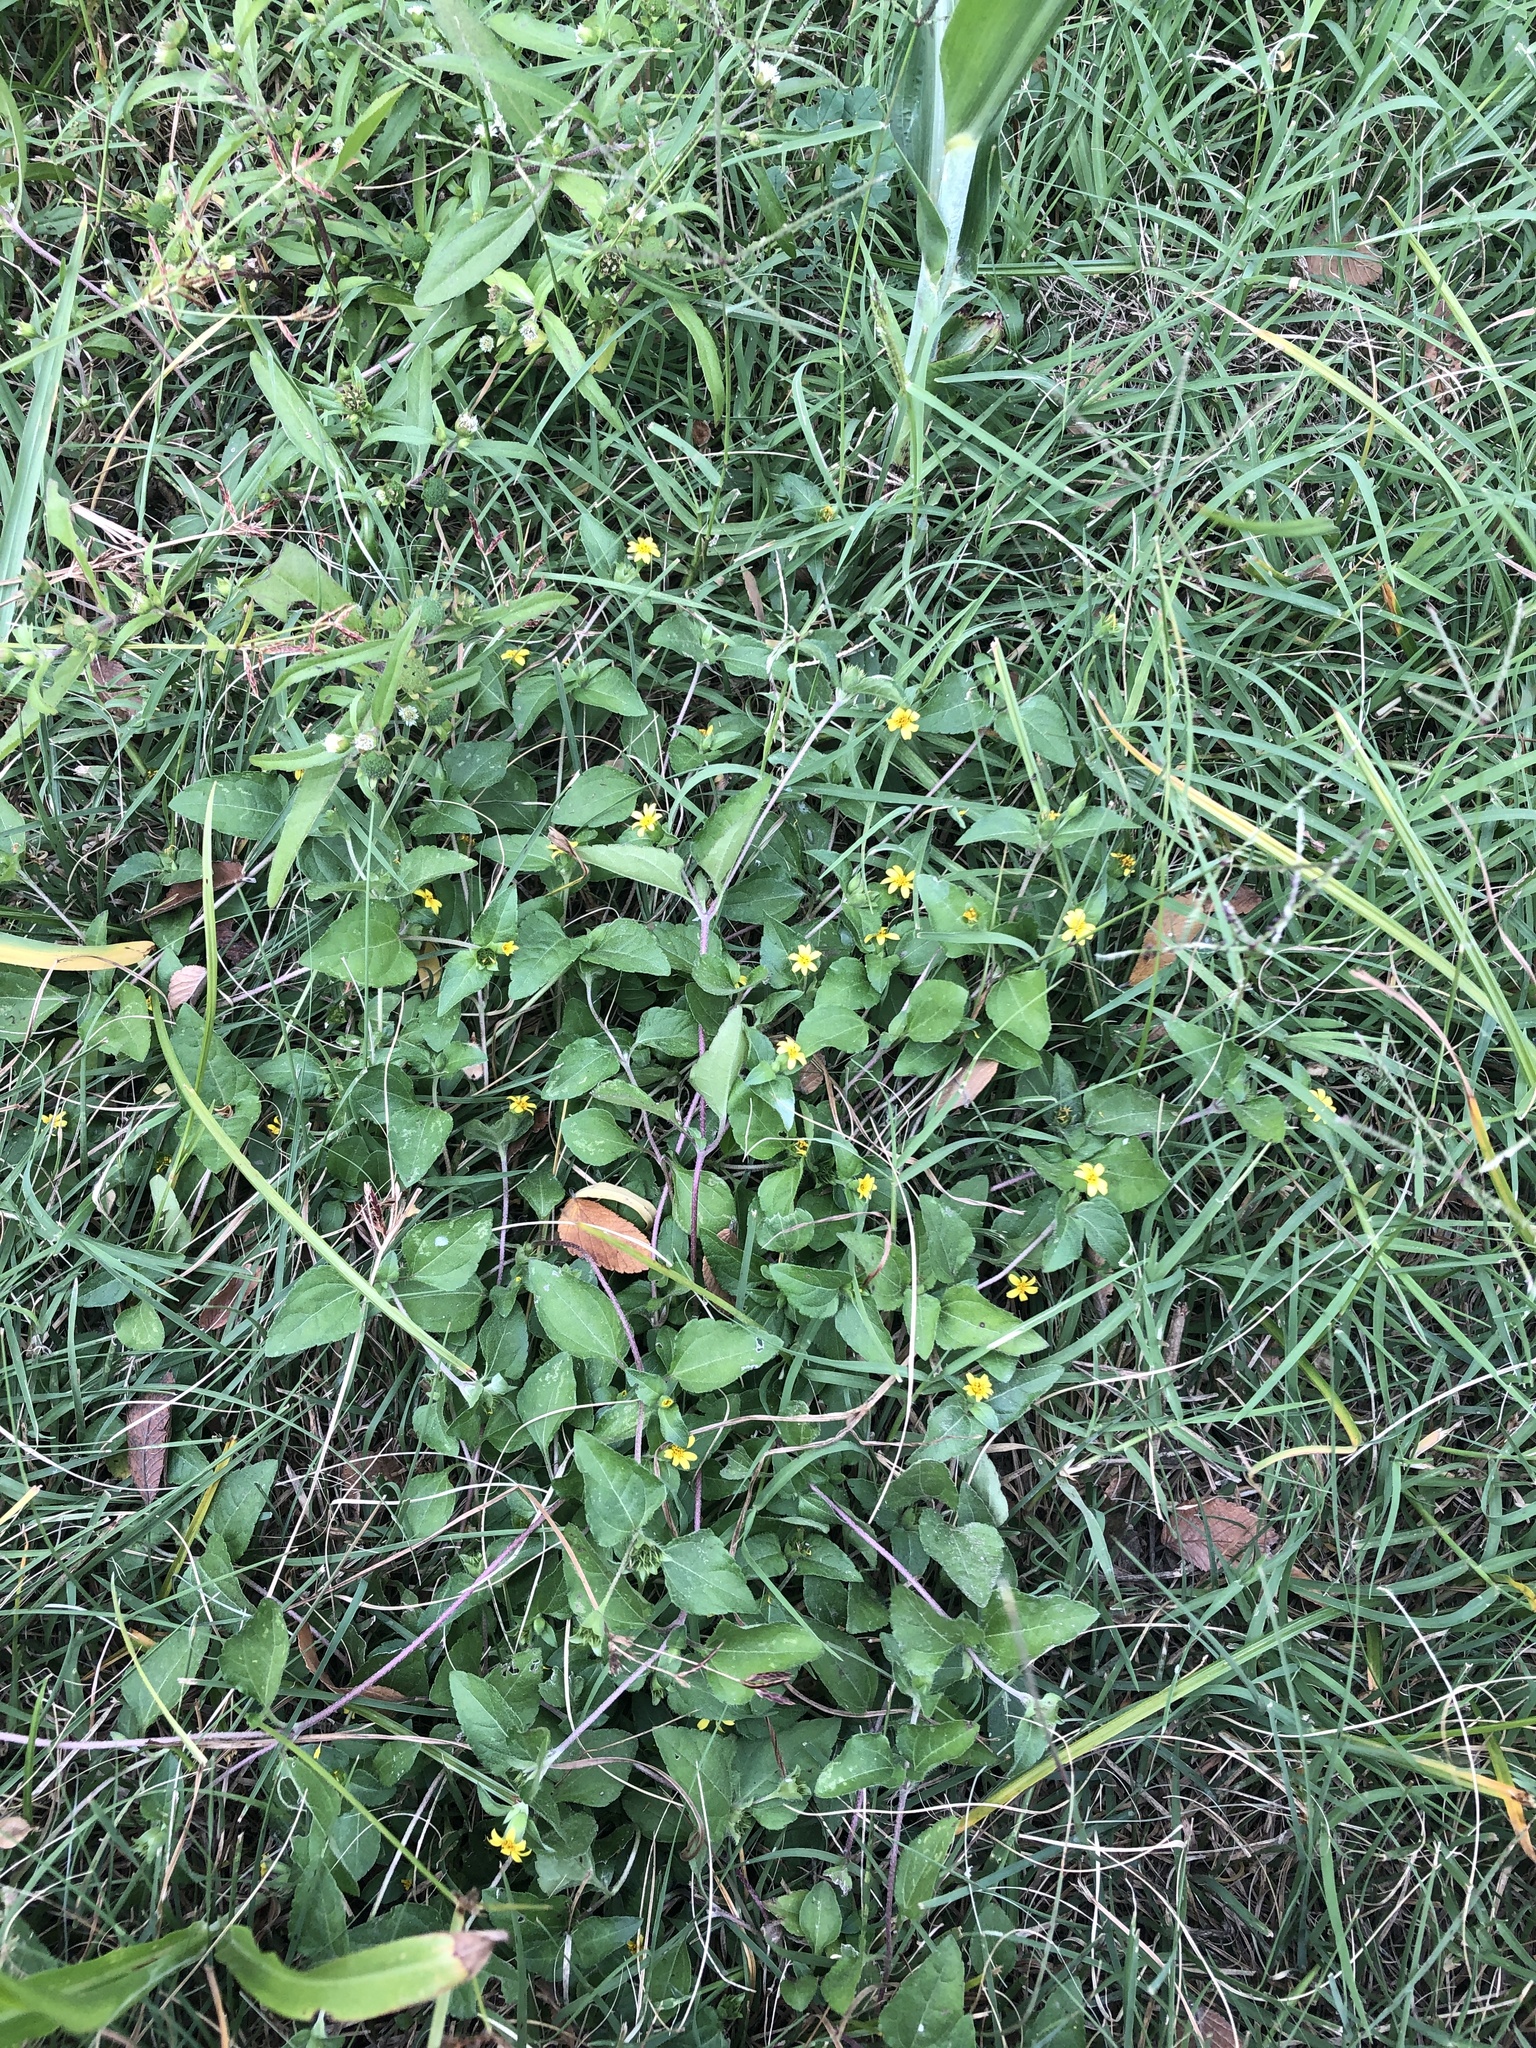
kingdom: Plantae
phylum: Tracheophyta
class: Magnoliopsida
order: Asterales
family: Asteraceae
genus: Calyptocarpus
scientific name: Calyptocarpus vialis
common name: Straggler daisy
